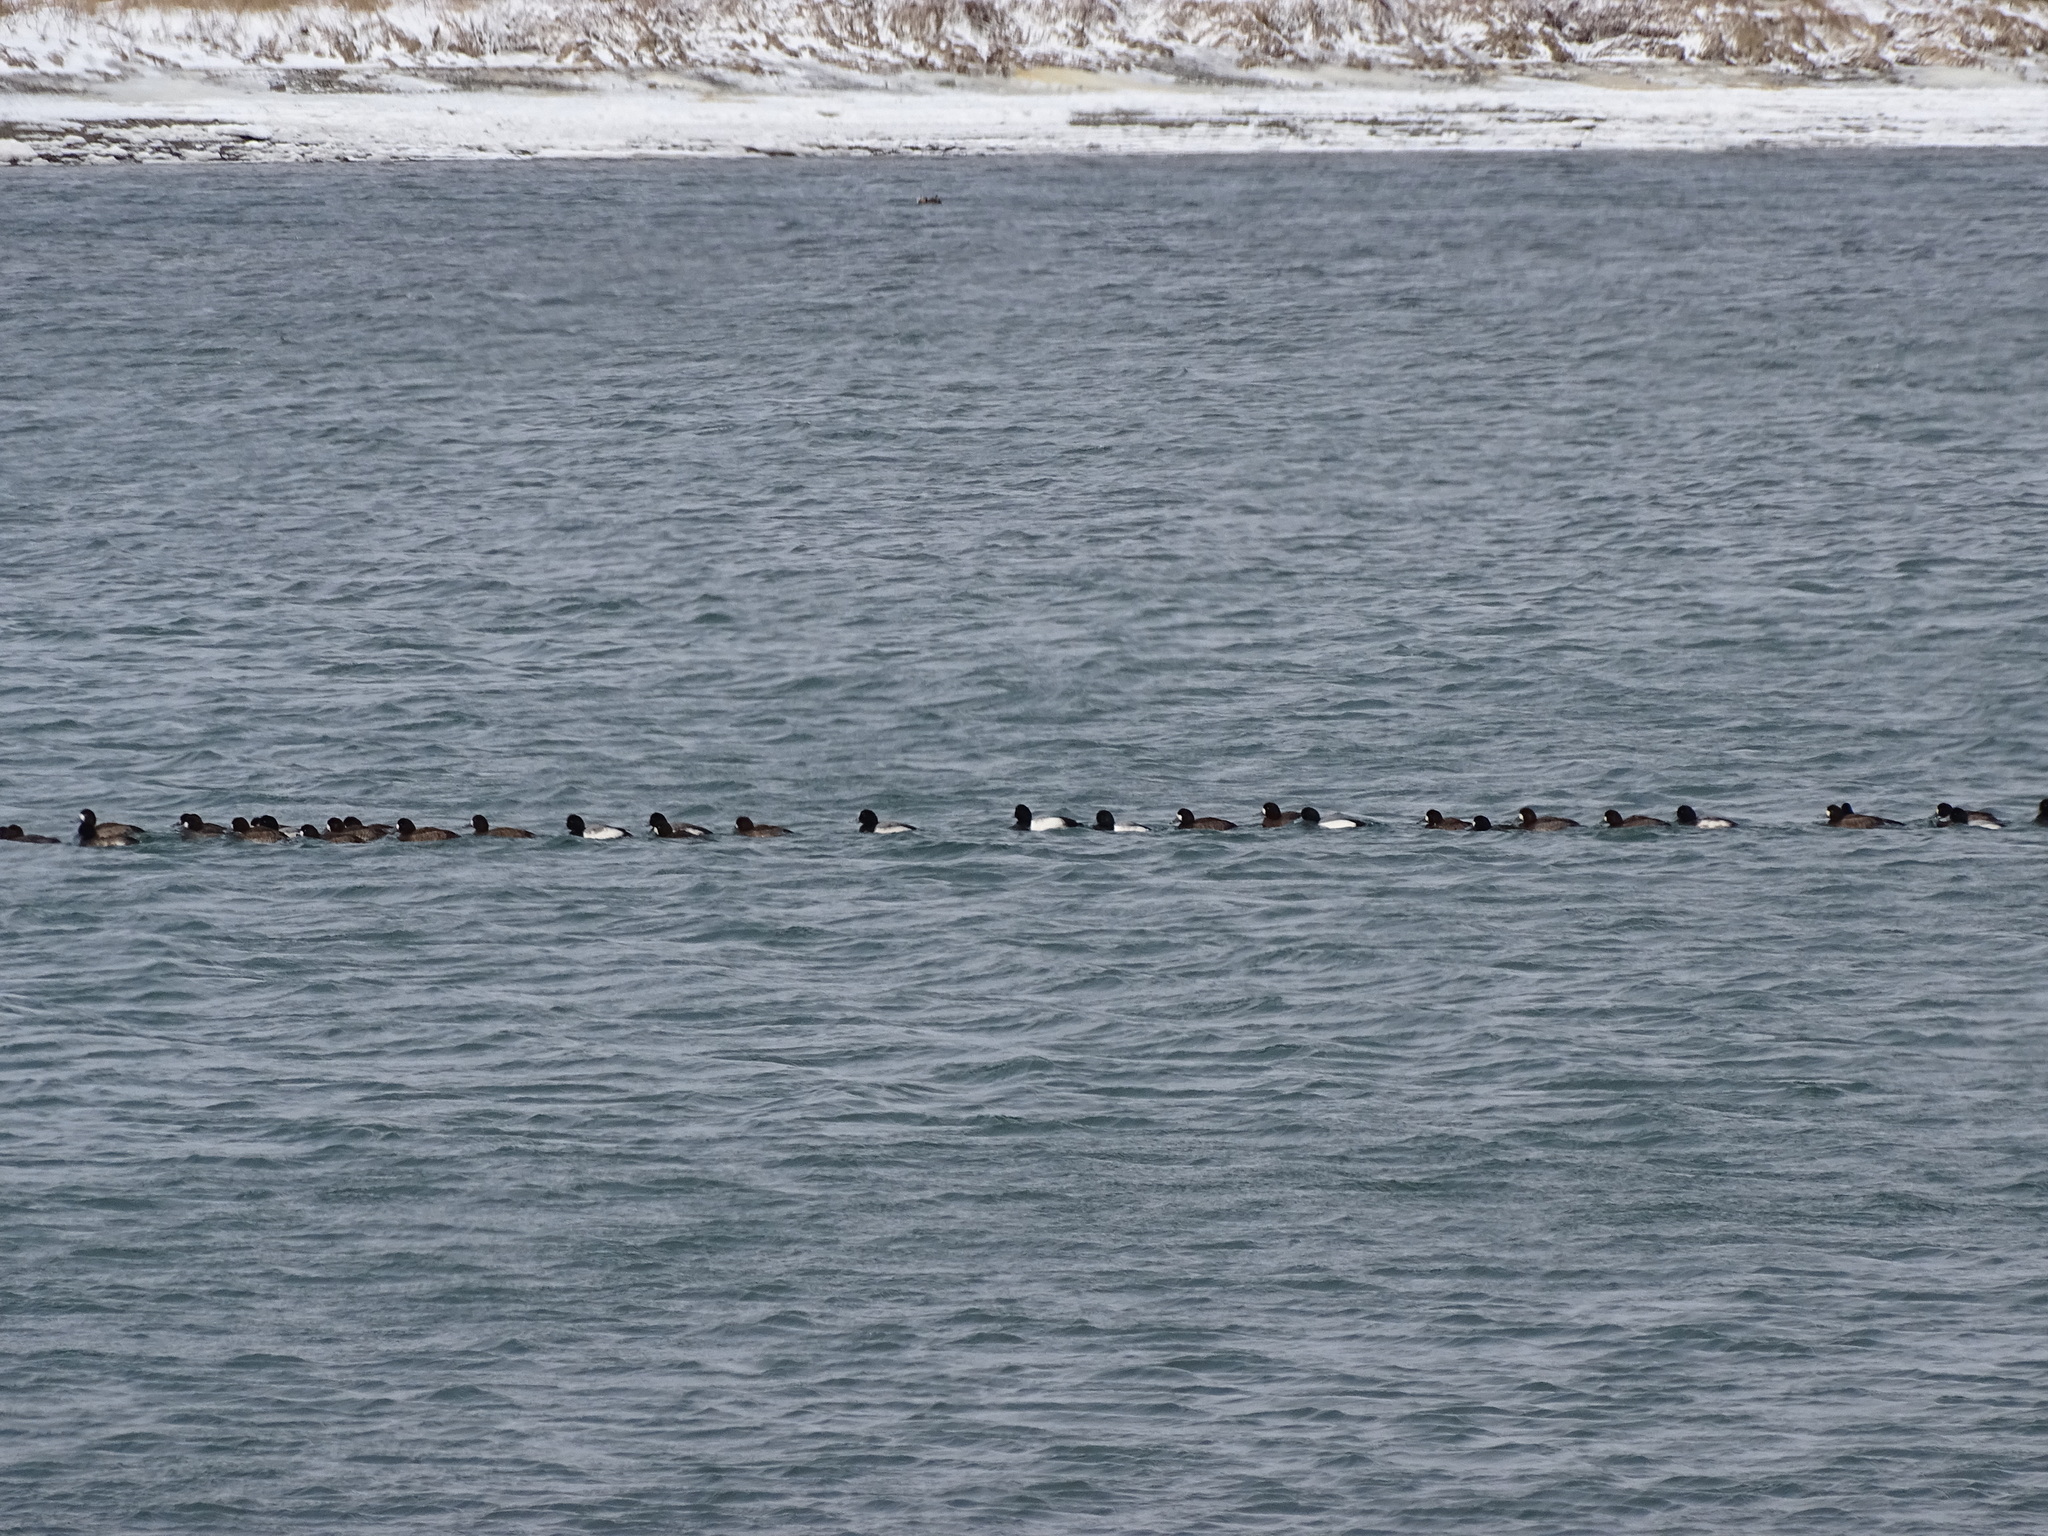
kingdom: Animalia
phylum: Chordata
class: Aves
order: Anseriformes
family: Anatidae
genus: Aythya
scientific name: Aythya marila
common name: Greater scaup
